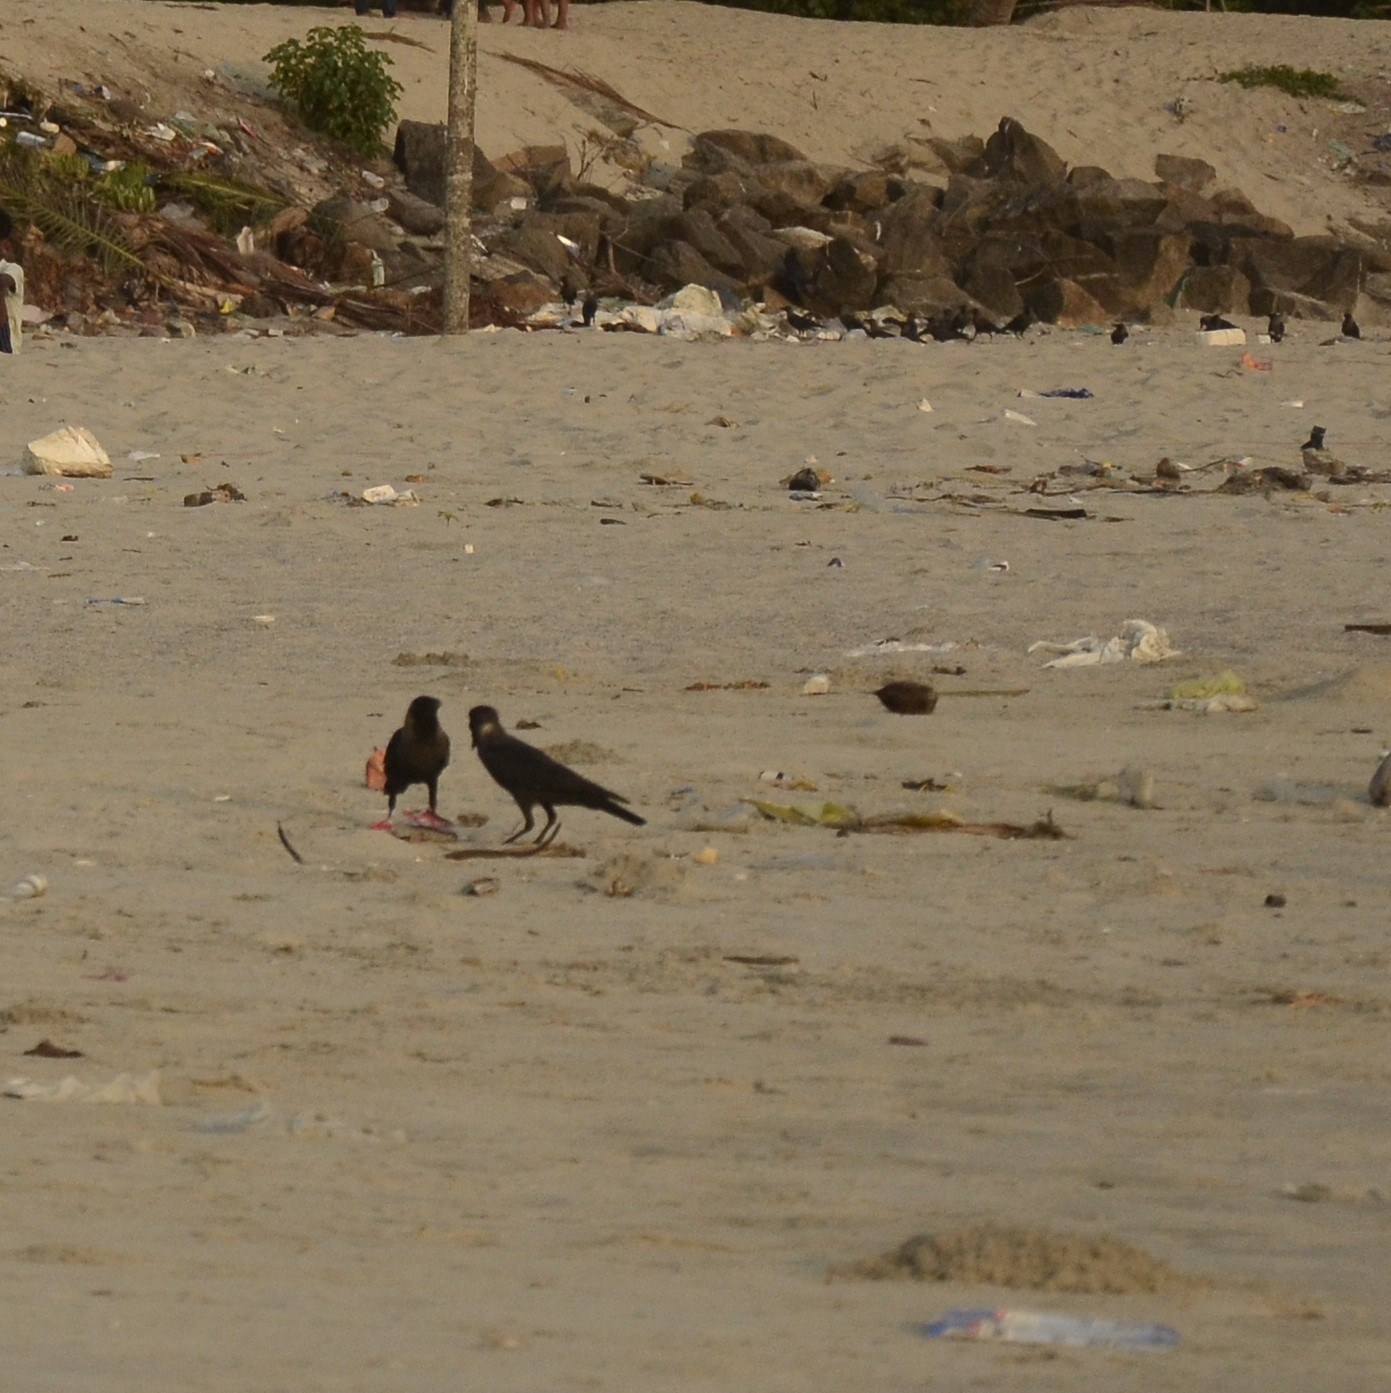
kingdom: Animalia
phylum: Chordata
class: Aves
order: Passeriformes
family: Corvidae
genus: Corvus
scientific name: Corvus splendens
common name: House crow
